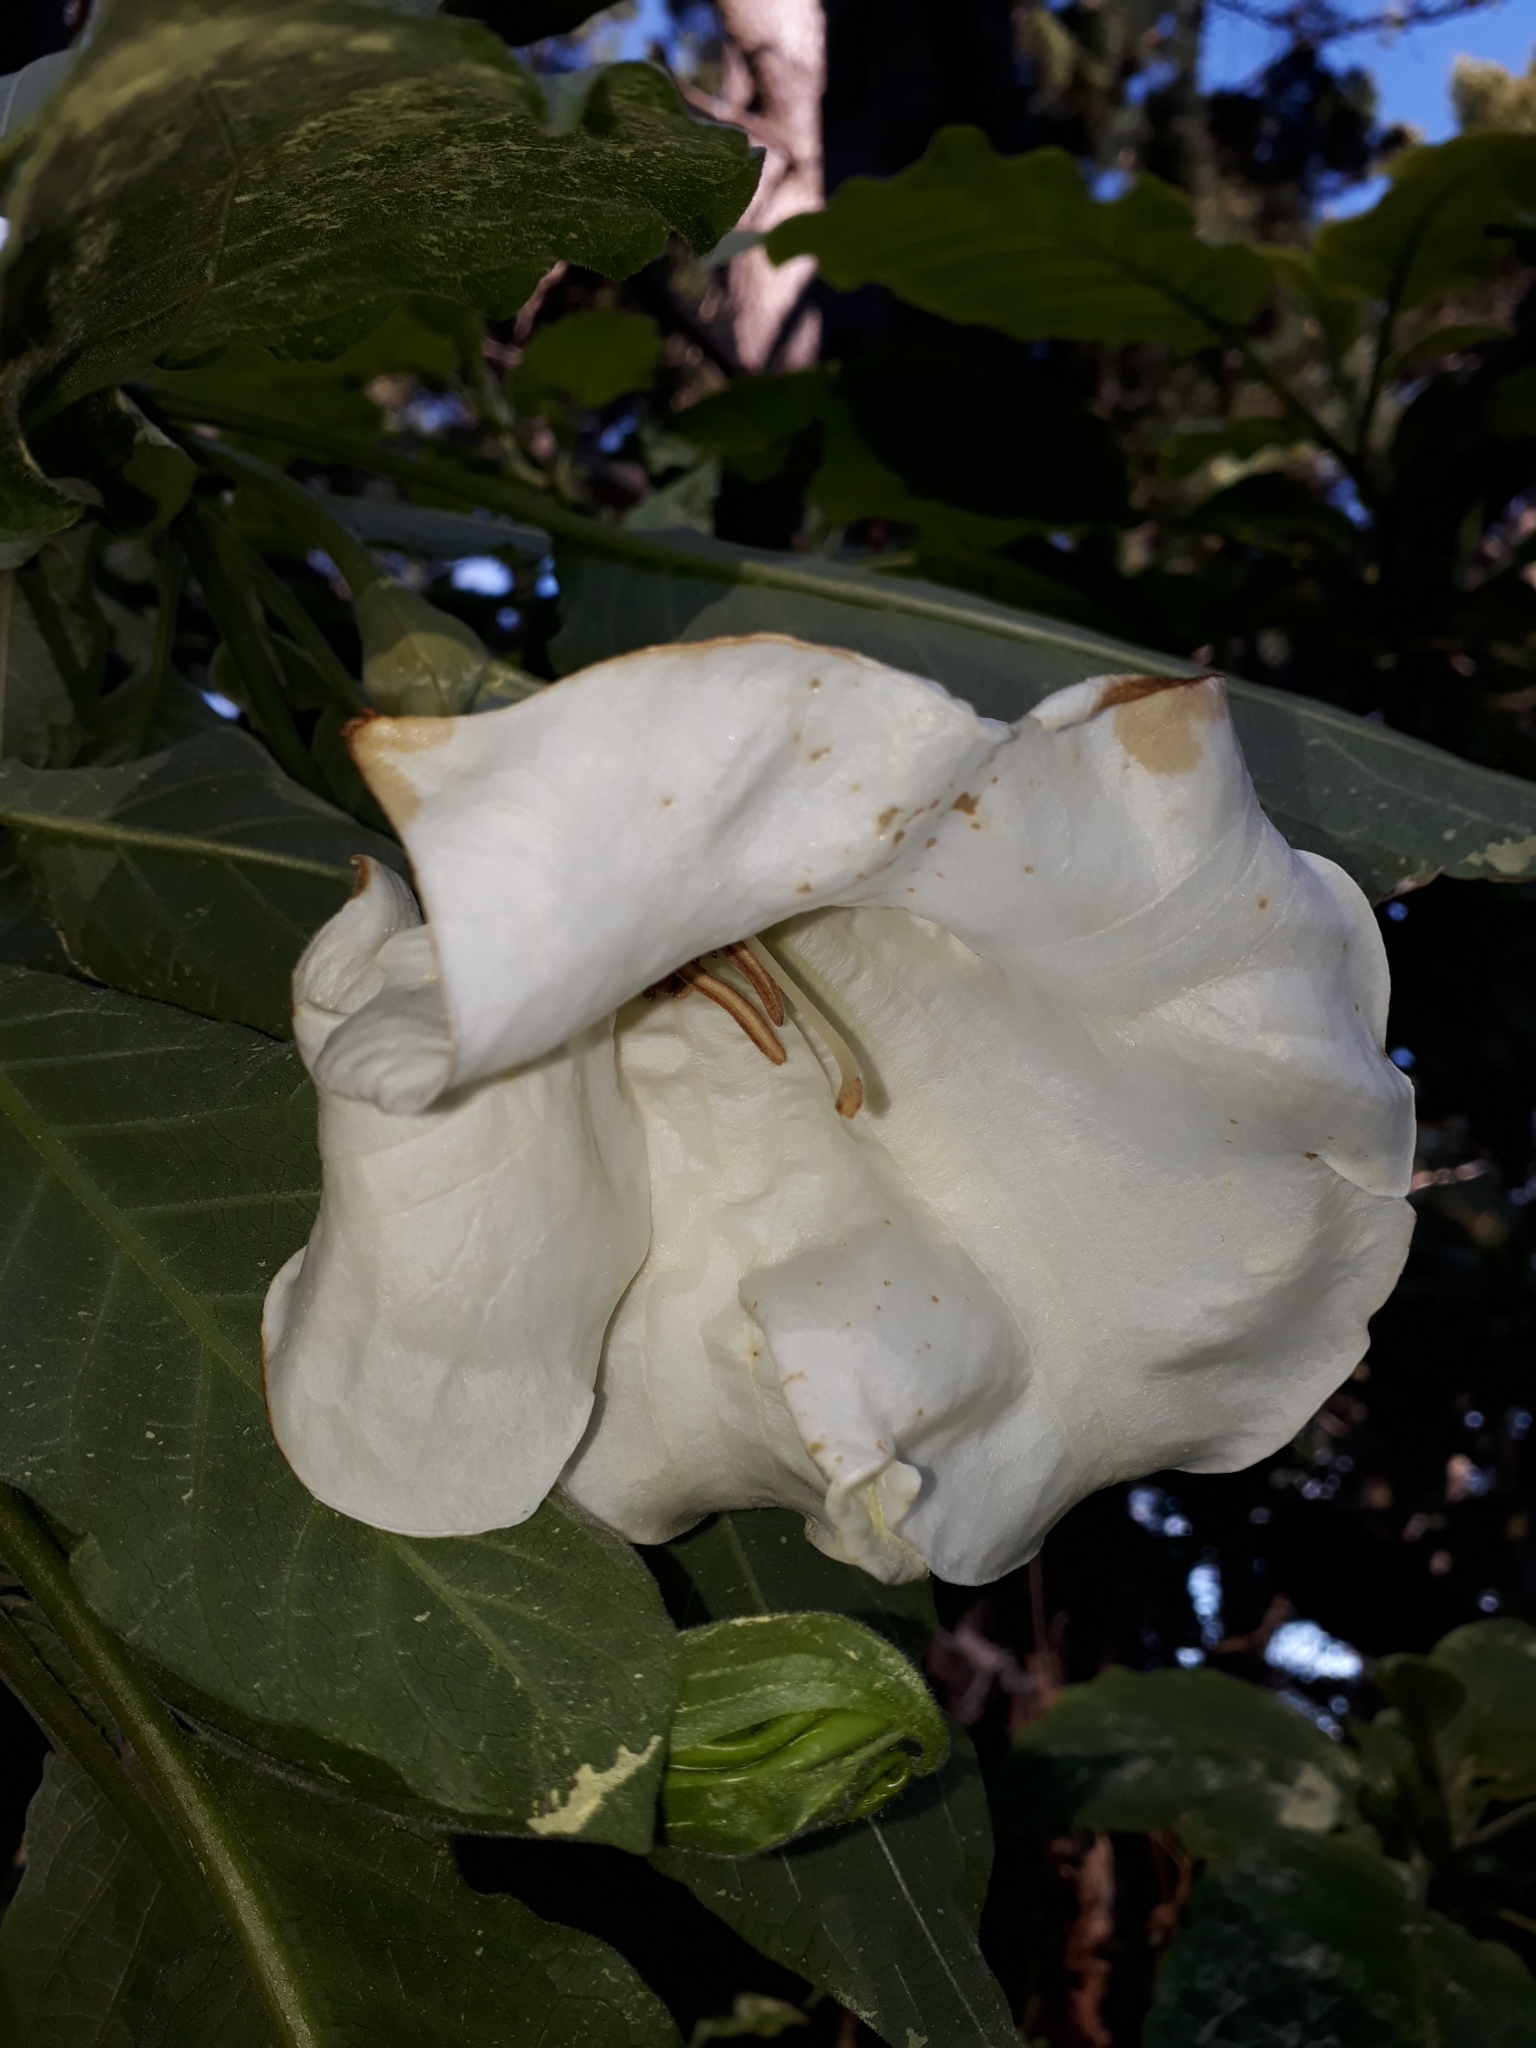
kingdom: Plantae
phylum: Tracheophyta
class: Magnoliopsida
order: Solanales
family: Solanaceae
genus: Brugmansia
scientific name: Brugmansia candida
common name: Angel's-trumpet
